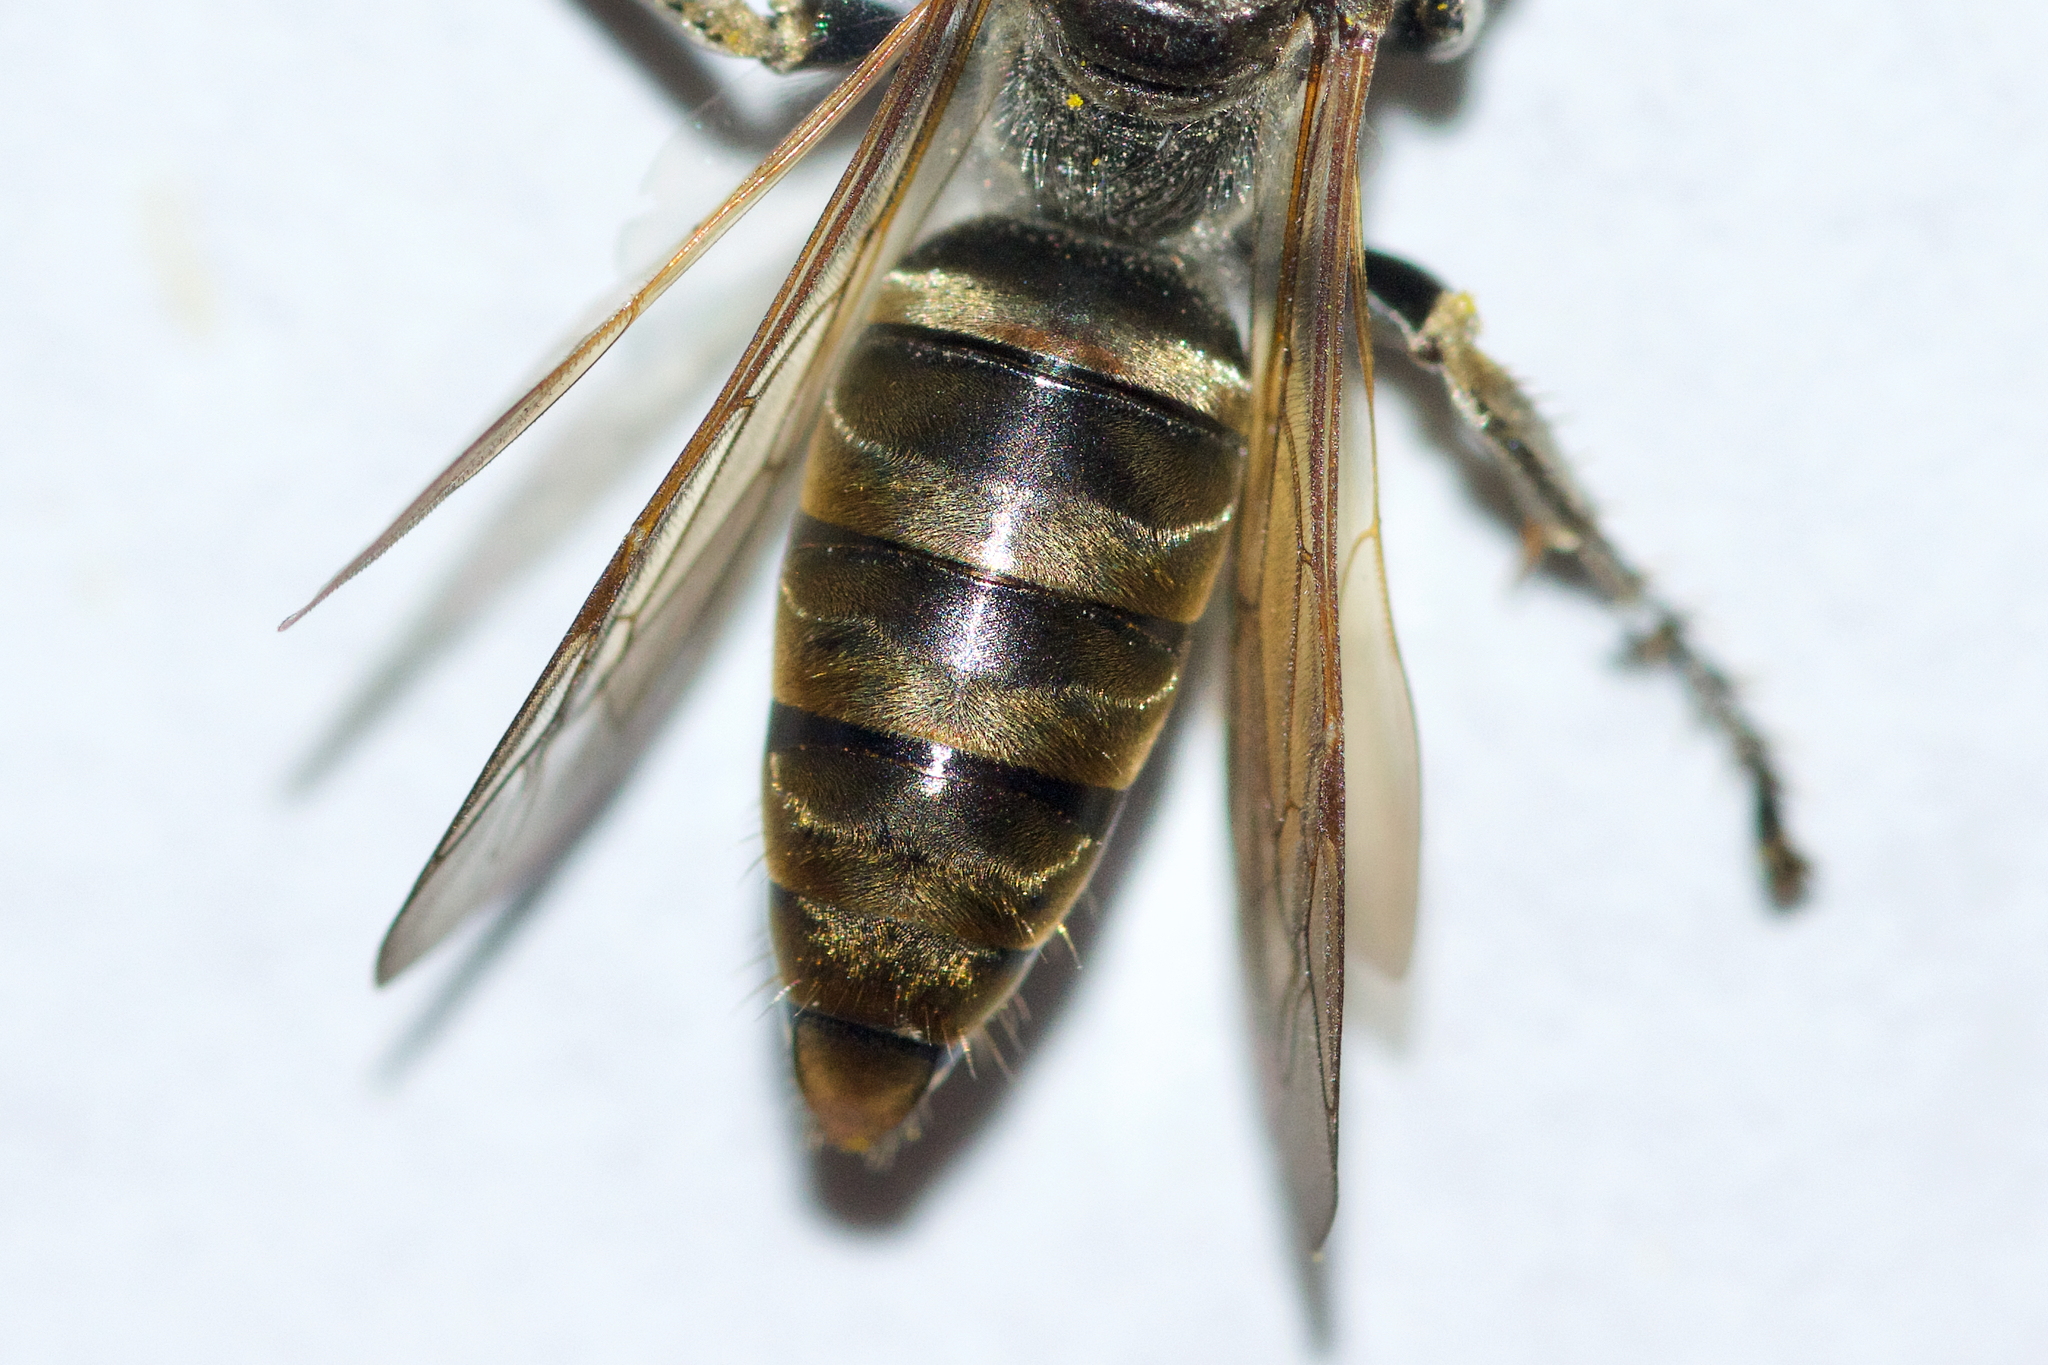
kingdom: Animalia
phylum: Arthropoda
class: Insecta
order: Hymenoptera
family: Crabronidae
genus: Tachytes
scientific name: Tachytes obductus
